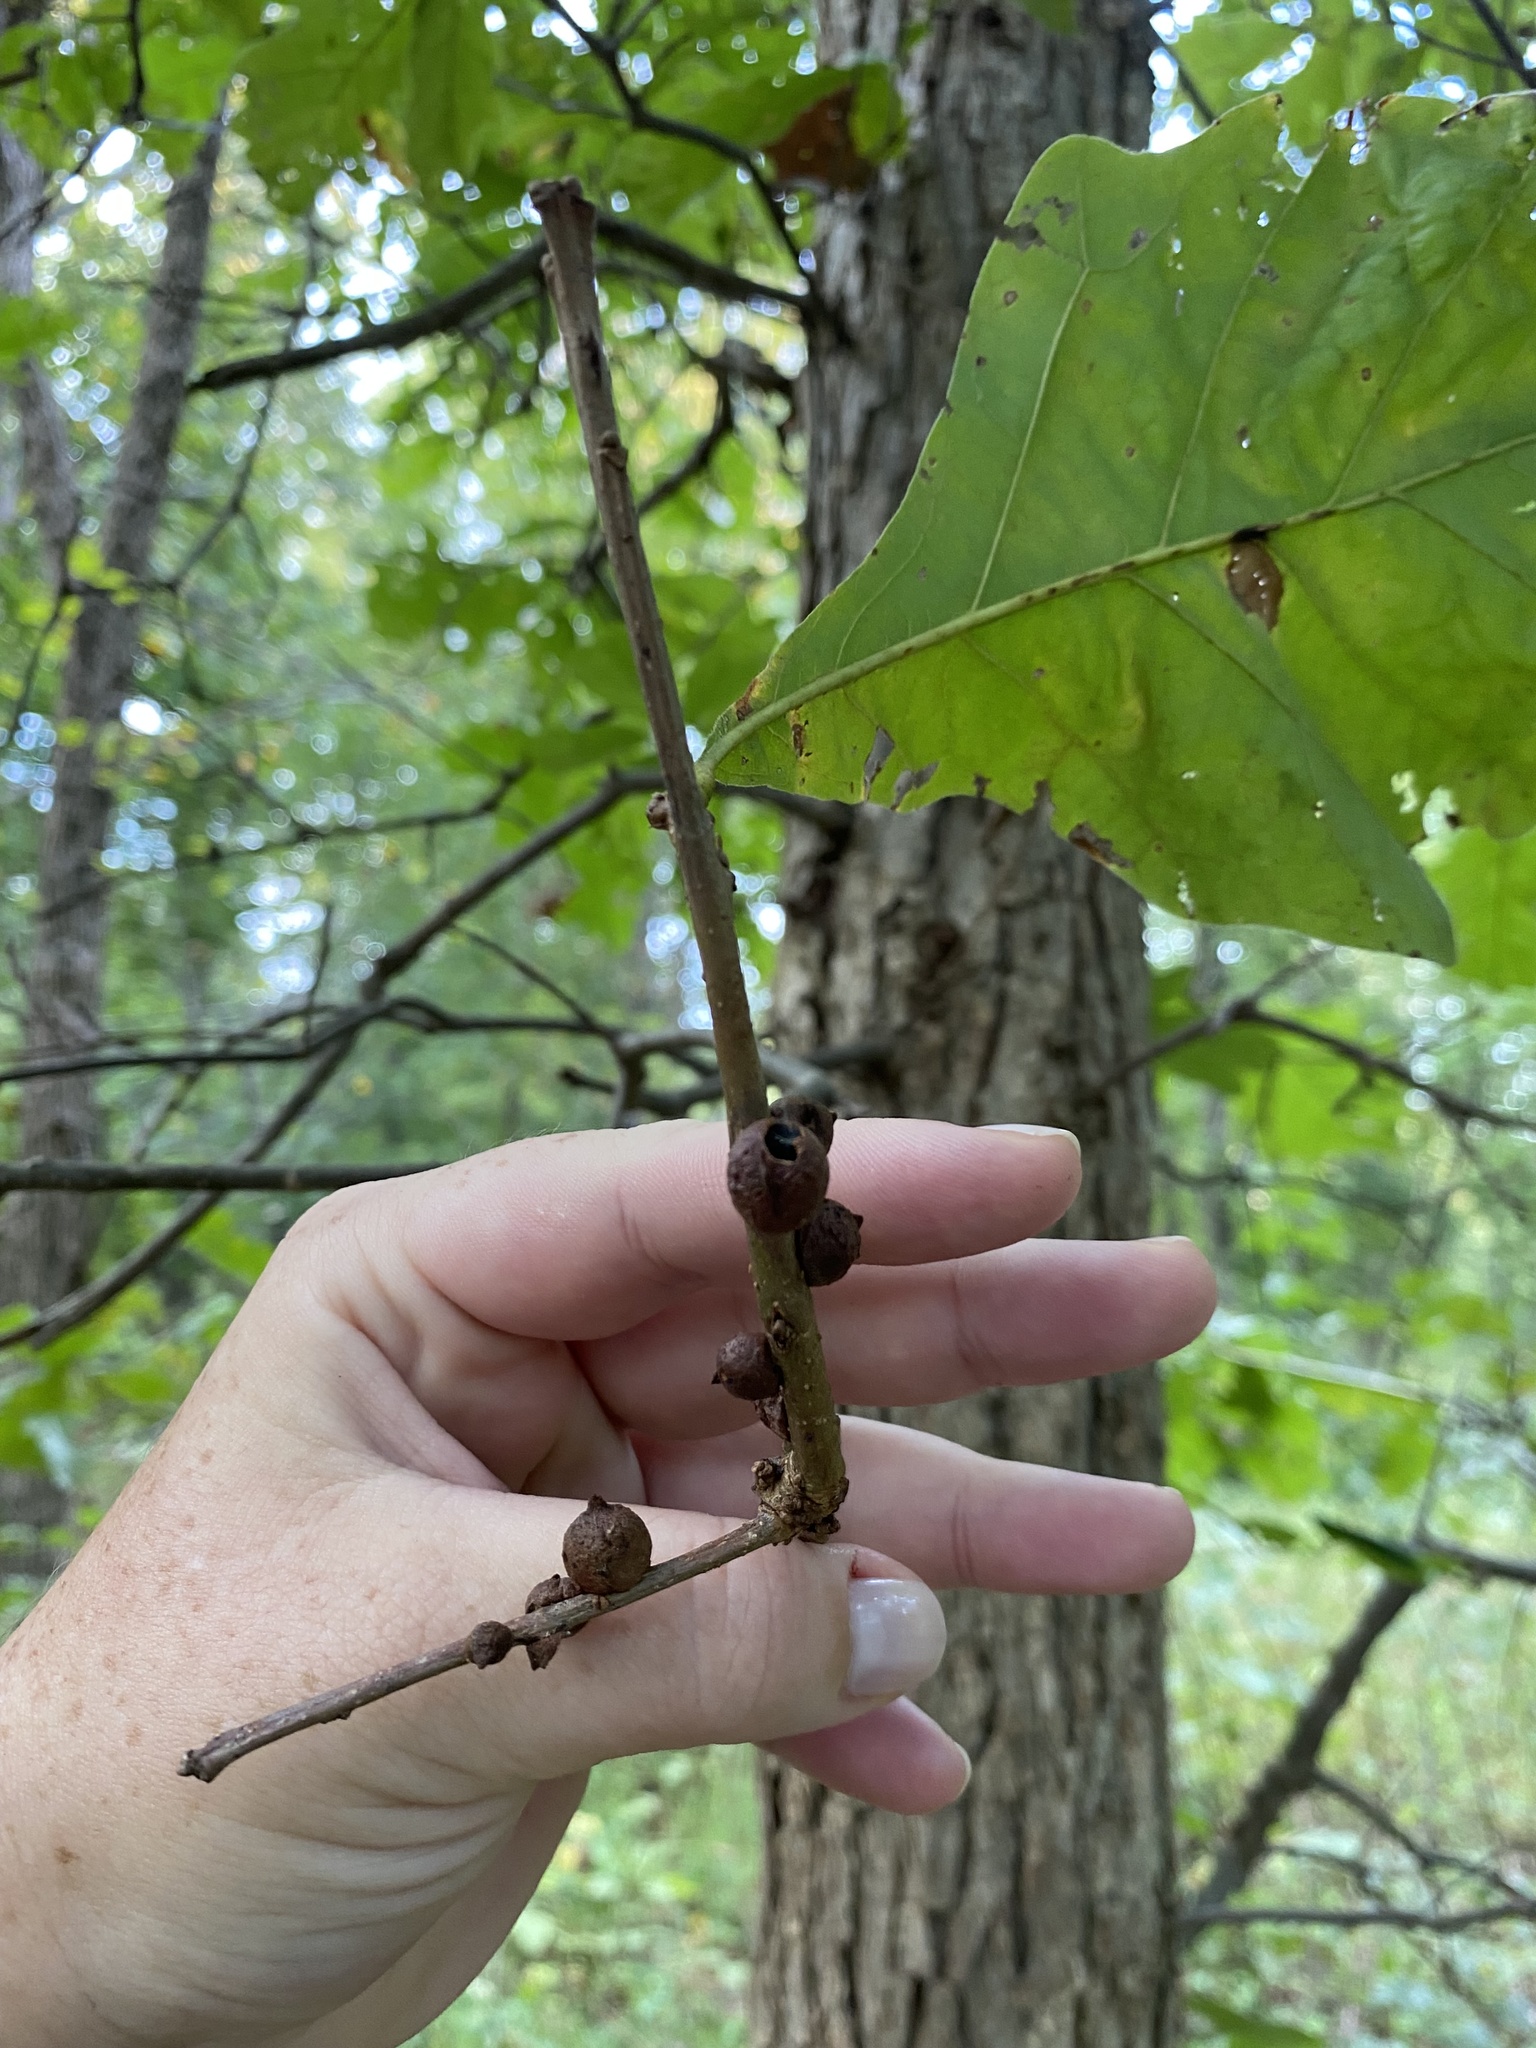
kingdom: Animalia
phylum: Arthropoda
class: Insecta
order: Hymenoptera
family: Cynipidae
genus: Disholcaspis
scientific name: Disholcaspis
